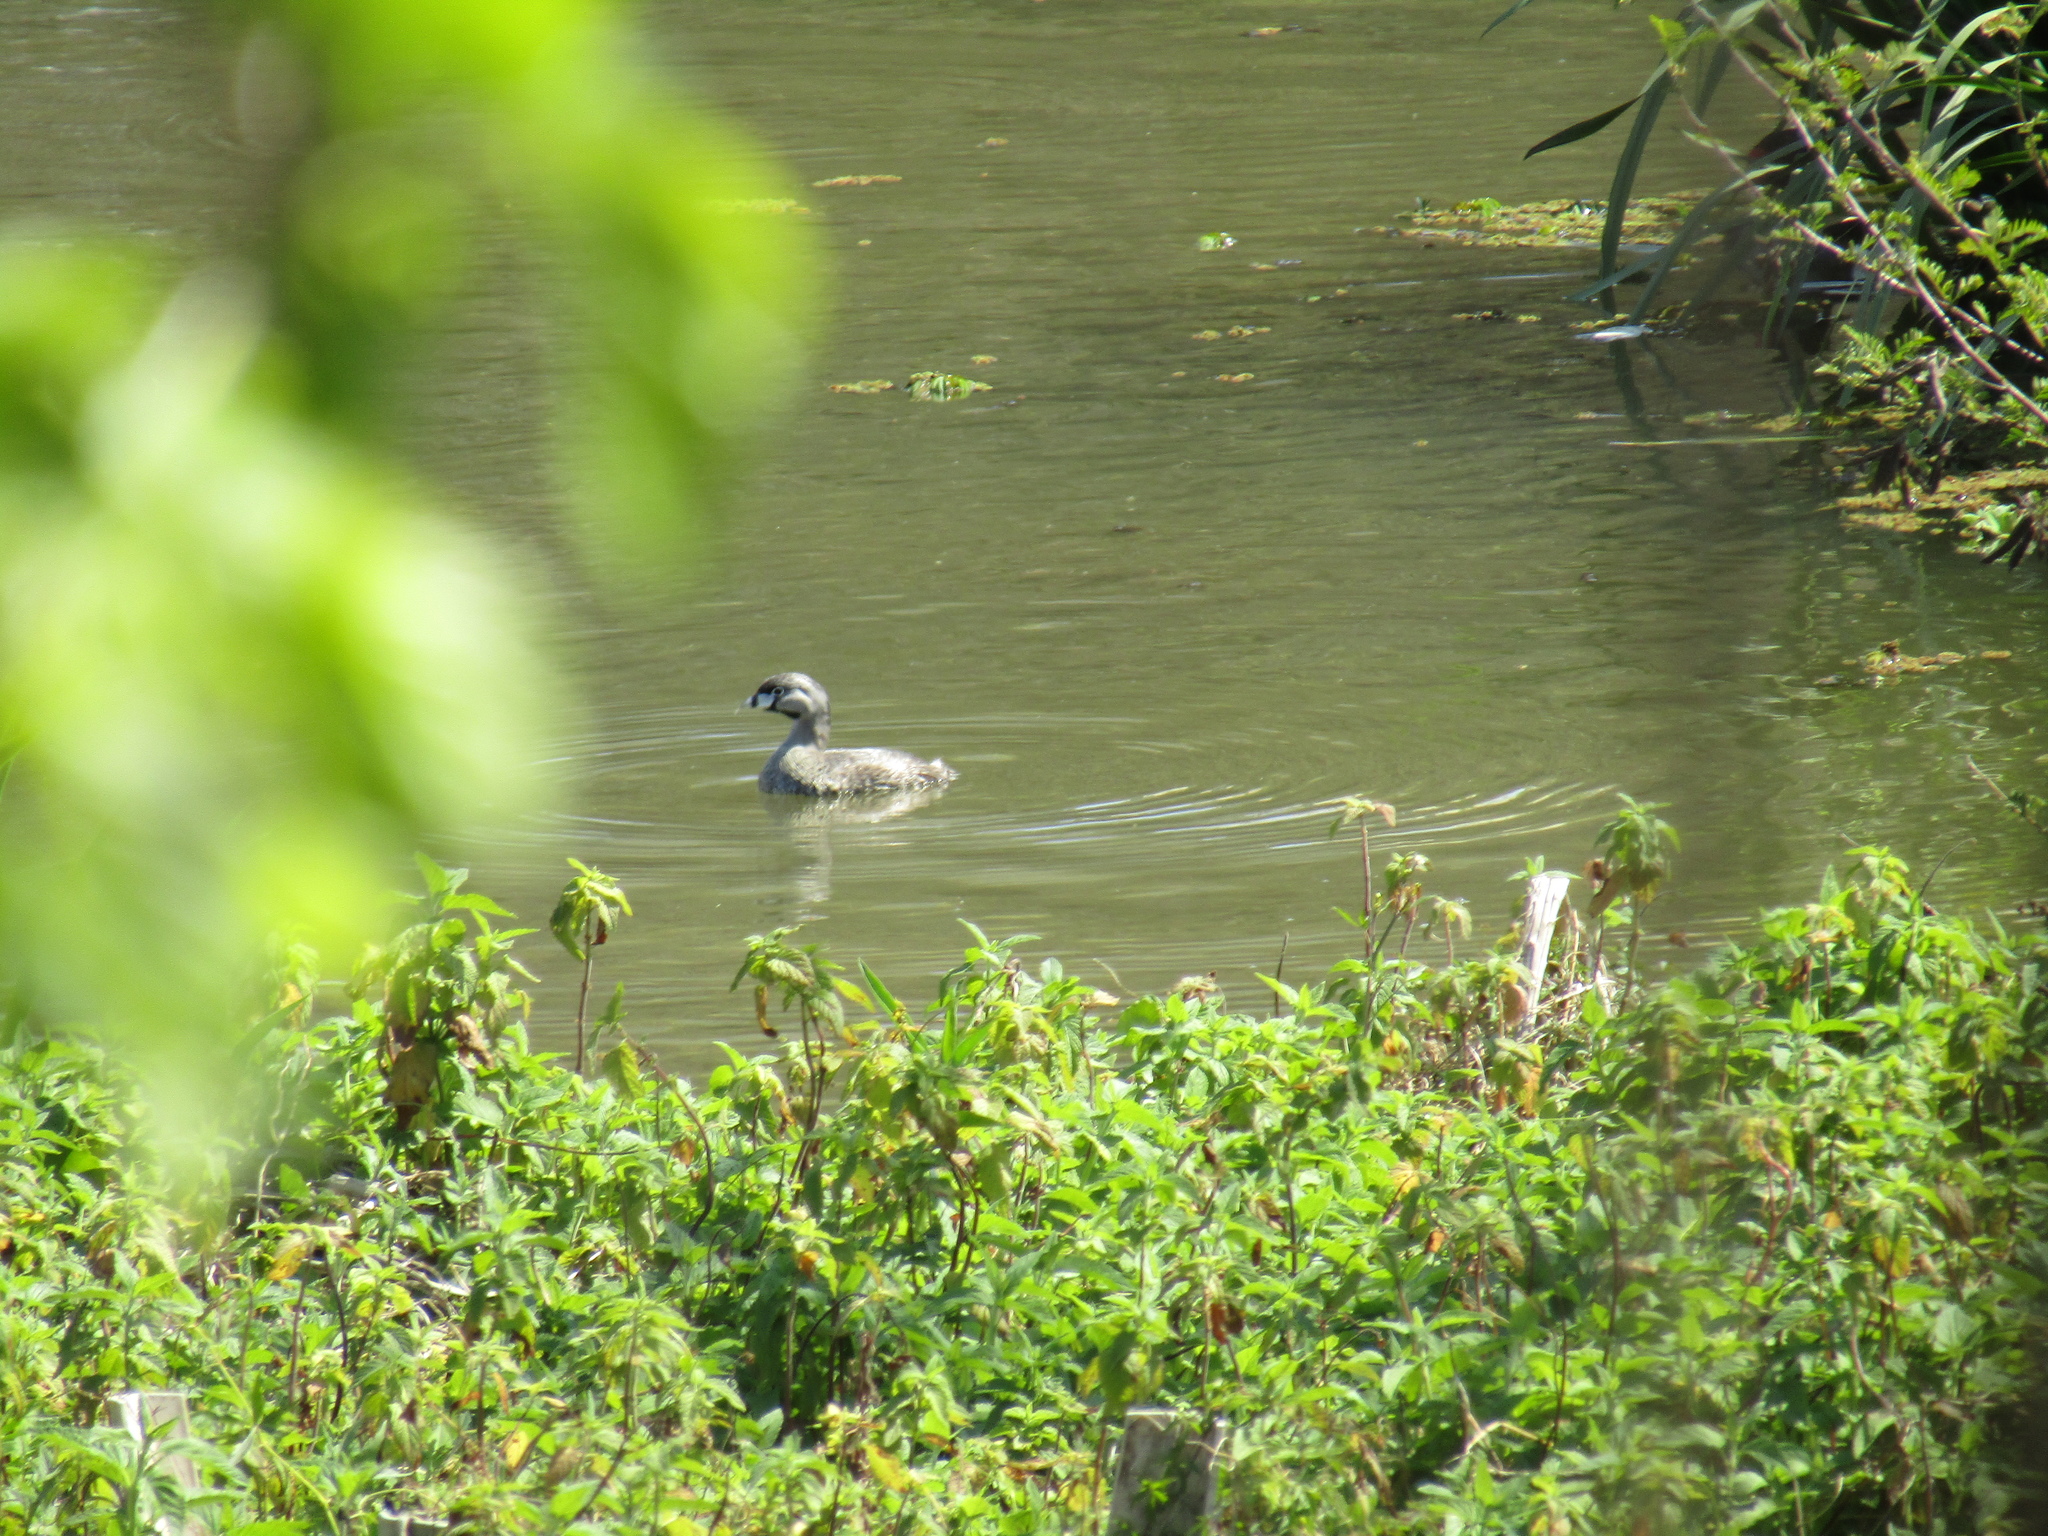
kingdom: Animalia
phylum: Chordata
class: Aves
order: Podicipediformes
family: Podicipedidae
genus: Podilymbus
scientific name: Podilymbus podiceps
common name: Pied-billed grebe
